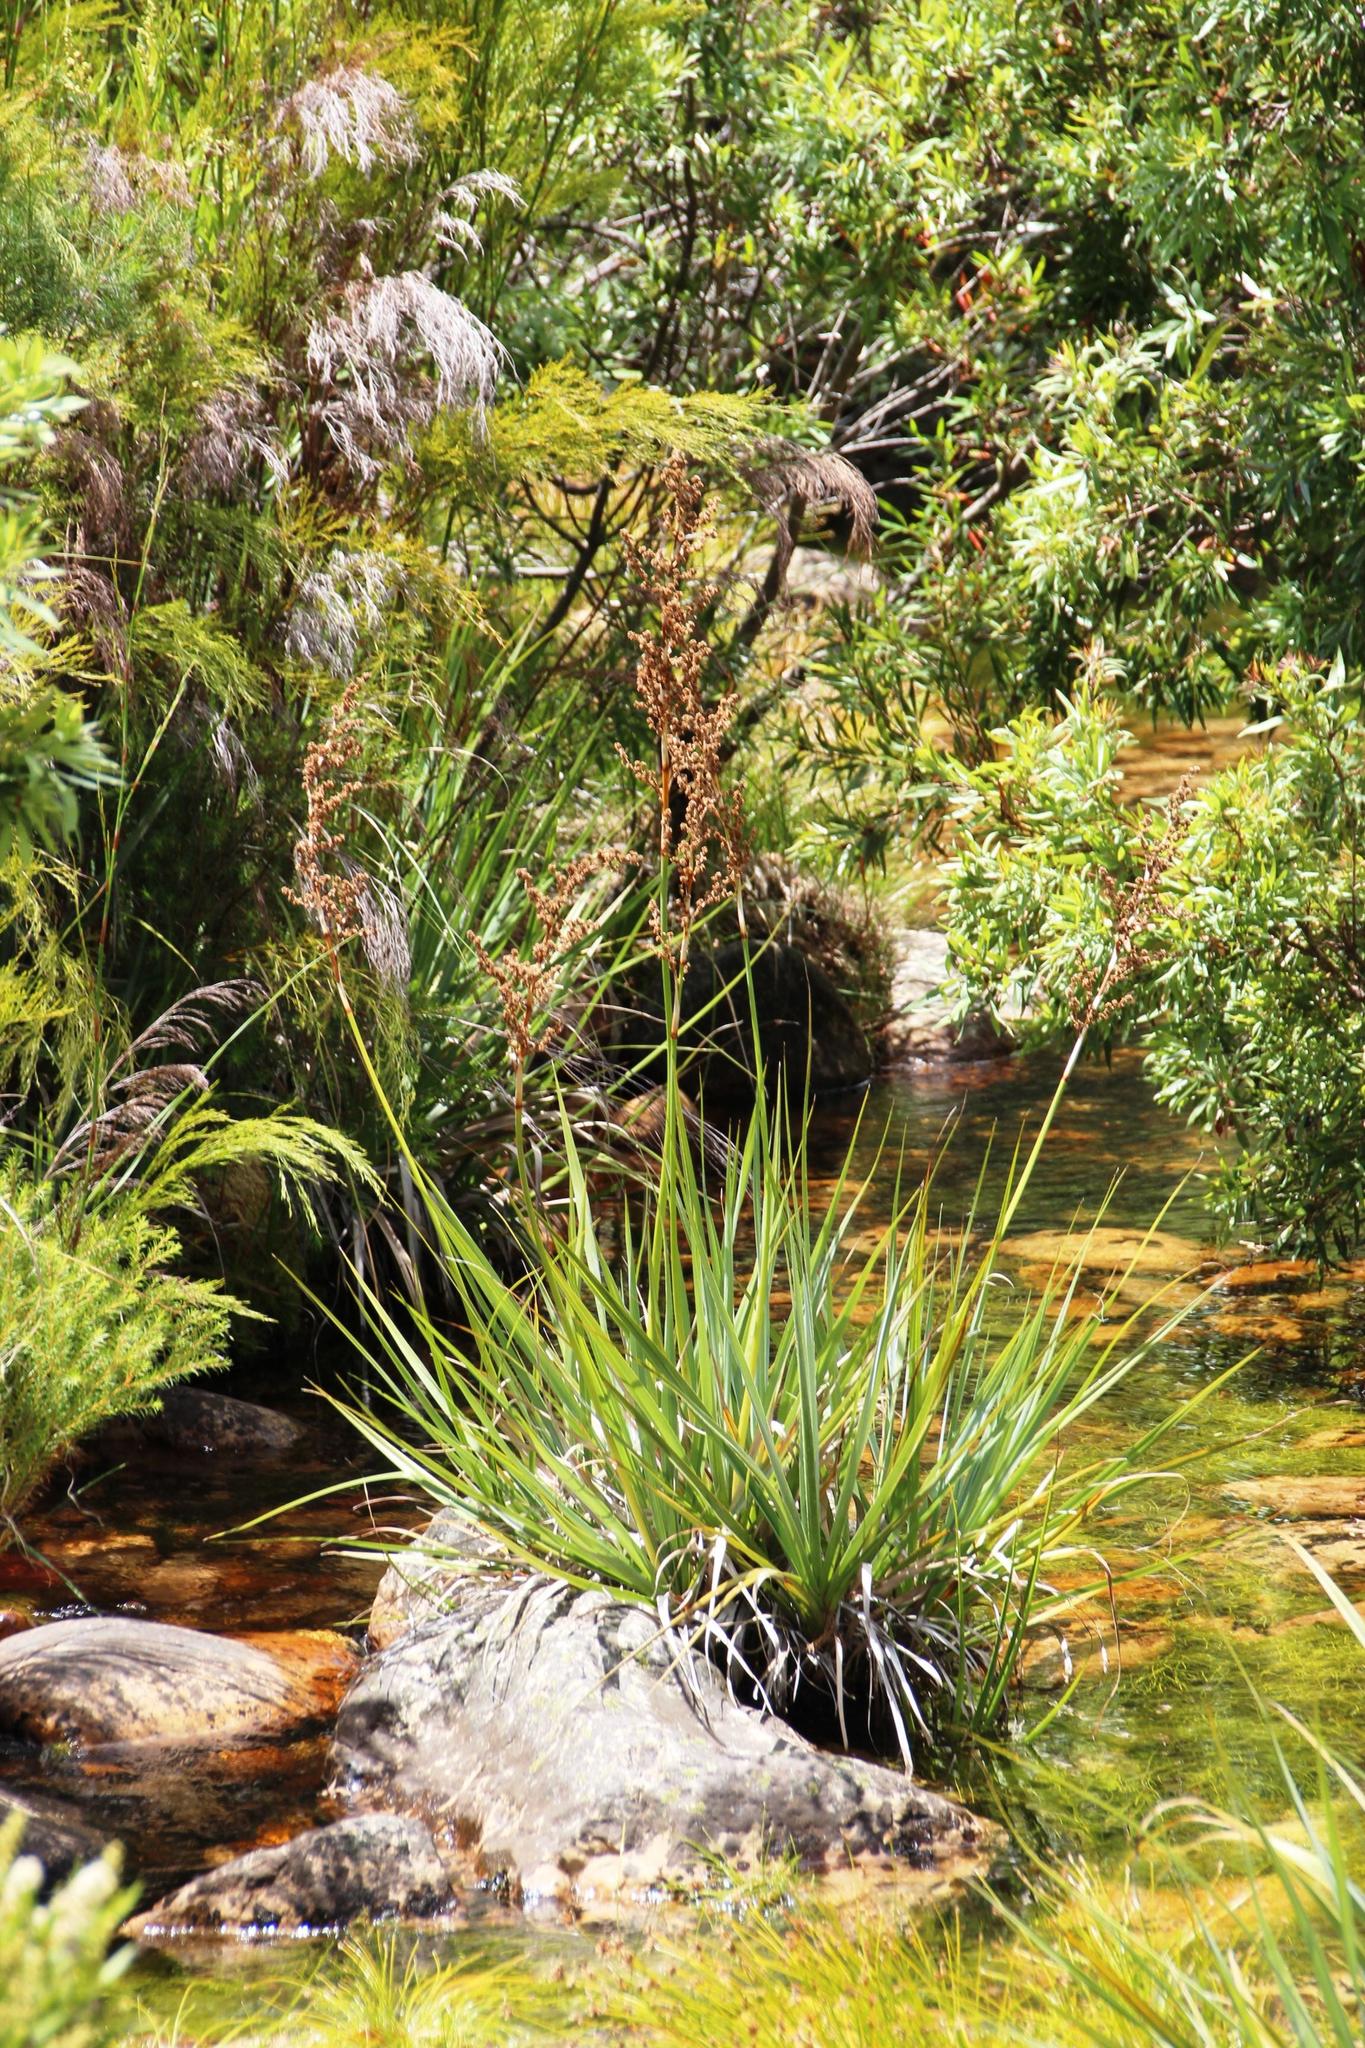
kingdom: Plantae
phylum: Tracheophyta
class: Liliopsida
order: Poales
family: Thurniaceae
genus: Prionium
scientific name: Prionium serratum
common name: Palmiet
